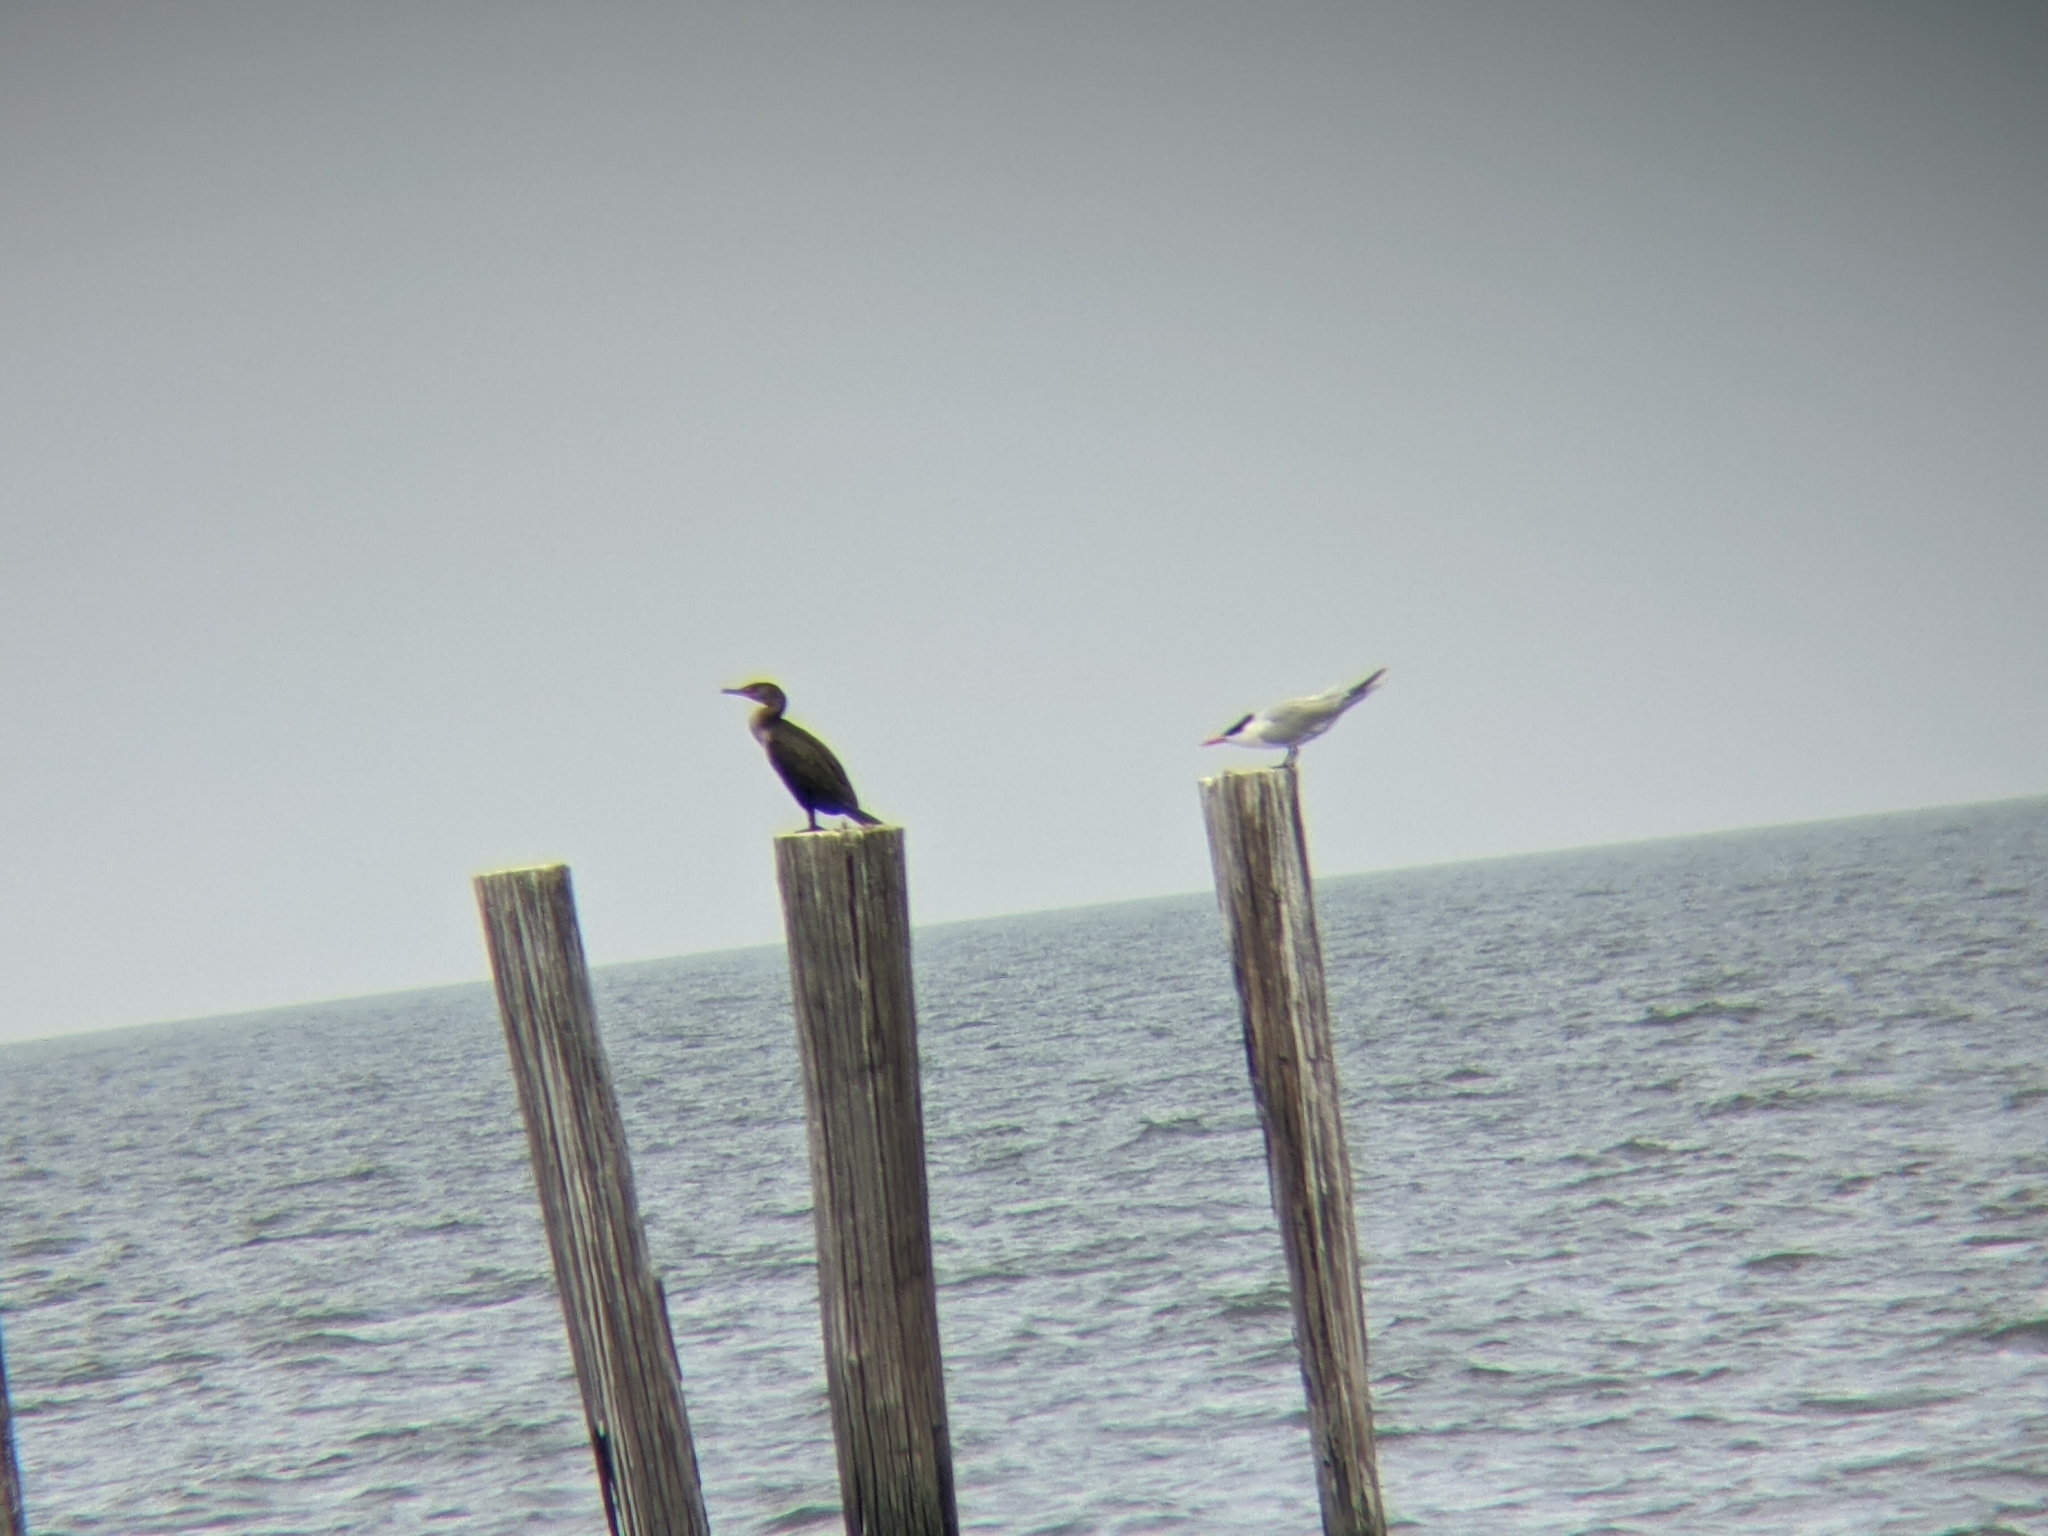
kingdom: Animalia
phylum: Chordata
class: Aves
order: Suliformes
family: Phalacrocoracidae
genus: Phalacrocorax
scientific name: Phalacrocorax auritus
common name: Double-crested cormorant
